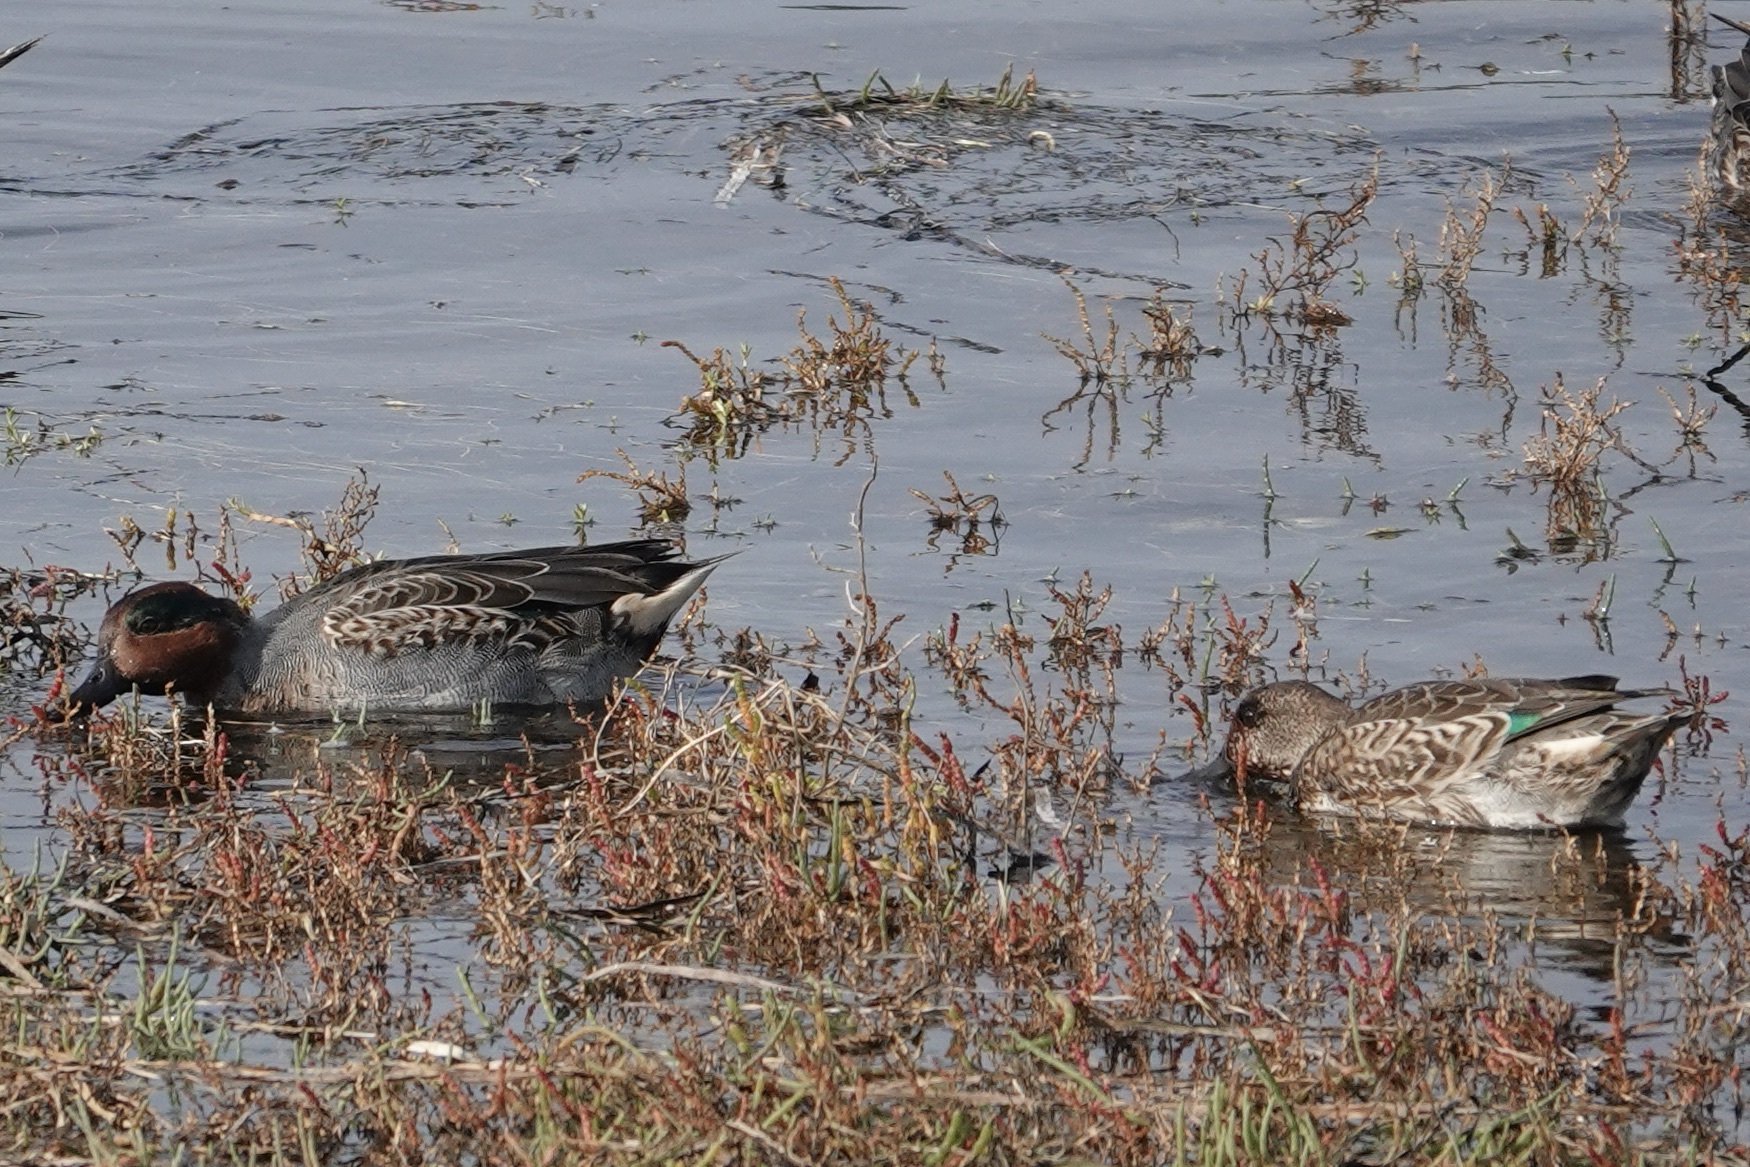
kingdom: Animalia
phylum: Chordata
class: Aves
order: Anseriformes
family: Anatidae
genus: Anas
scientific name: Anas crecca
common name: Eurasian teal
